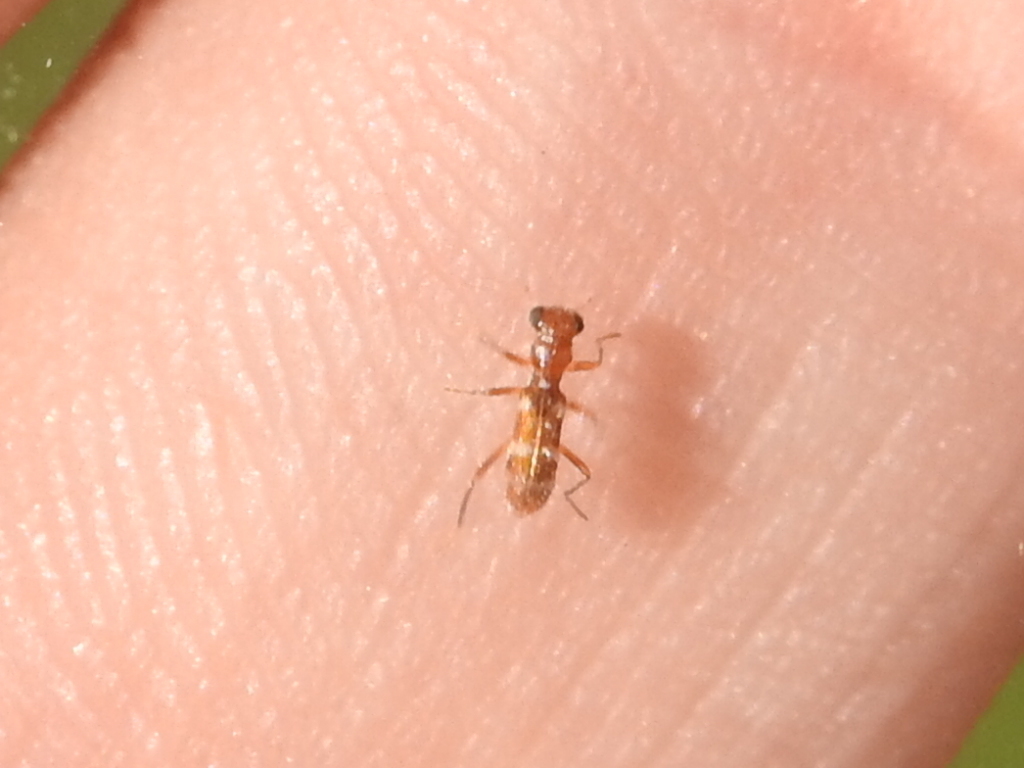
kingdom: Animalia
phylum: Arthropoda
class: Insecta
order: Coleoptera
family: Cleridae
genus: Isohydnocera
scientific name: Isohydnocera albocincta
